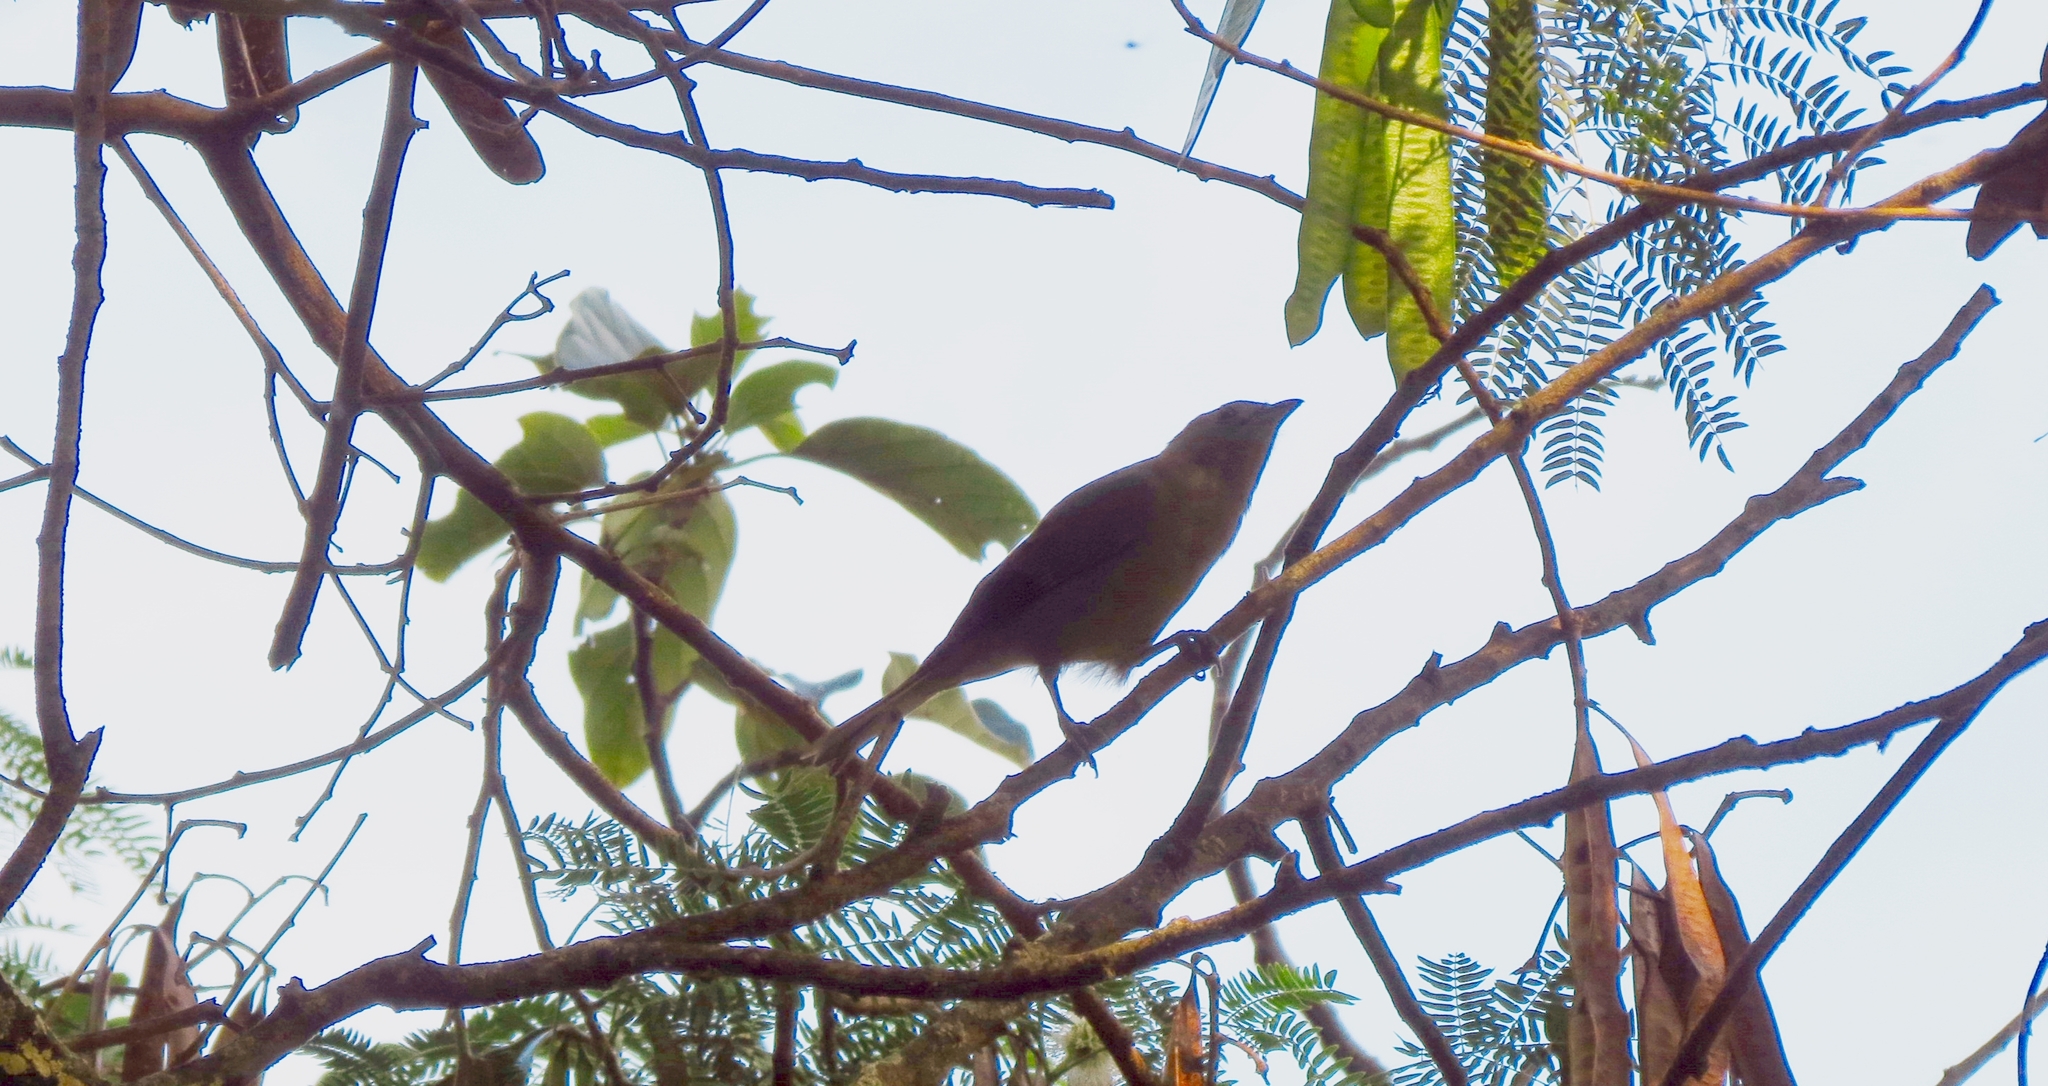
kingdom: Animalia
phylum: Chordata
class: Aves
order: Passeriformes
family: Thraupidae
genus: Thraupis
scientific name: Thraupis palmarum
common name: Palm tanager
